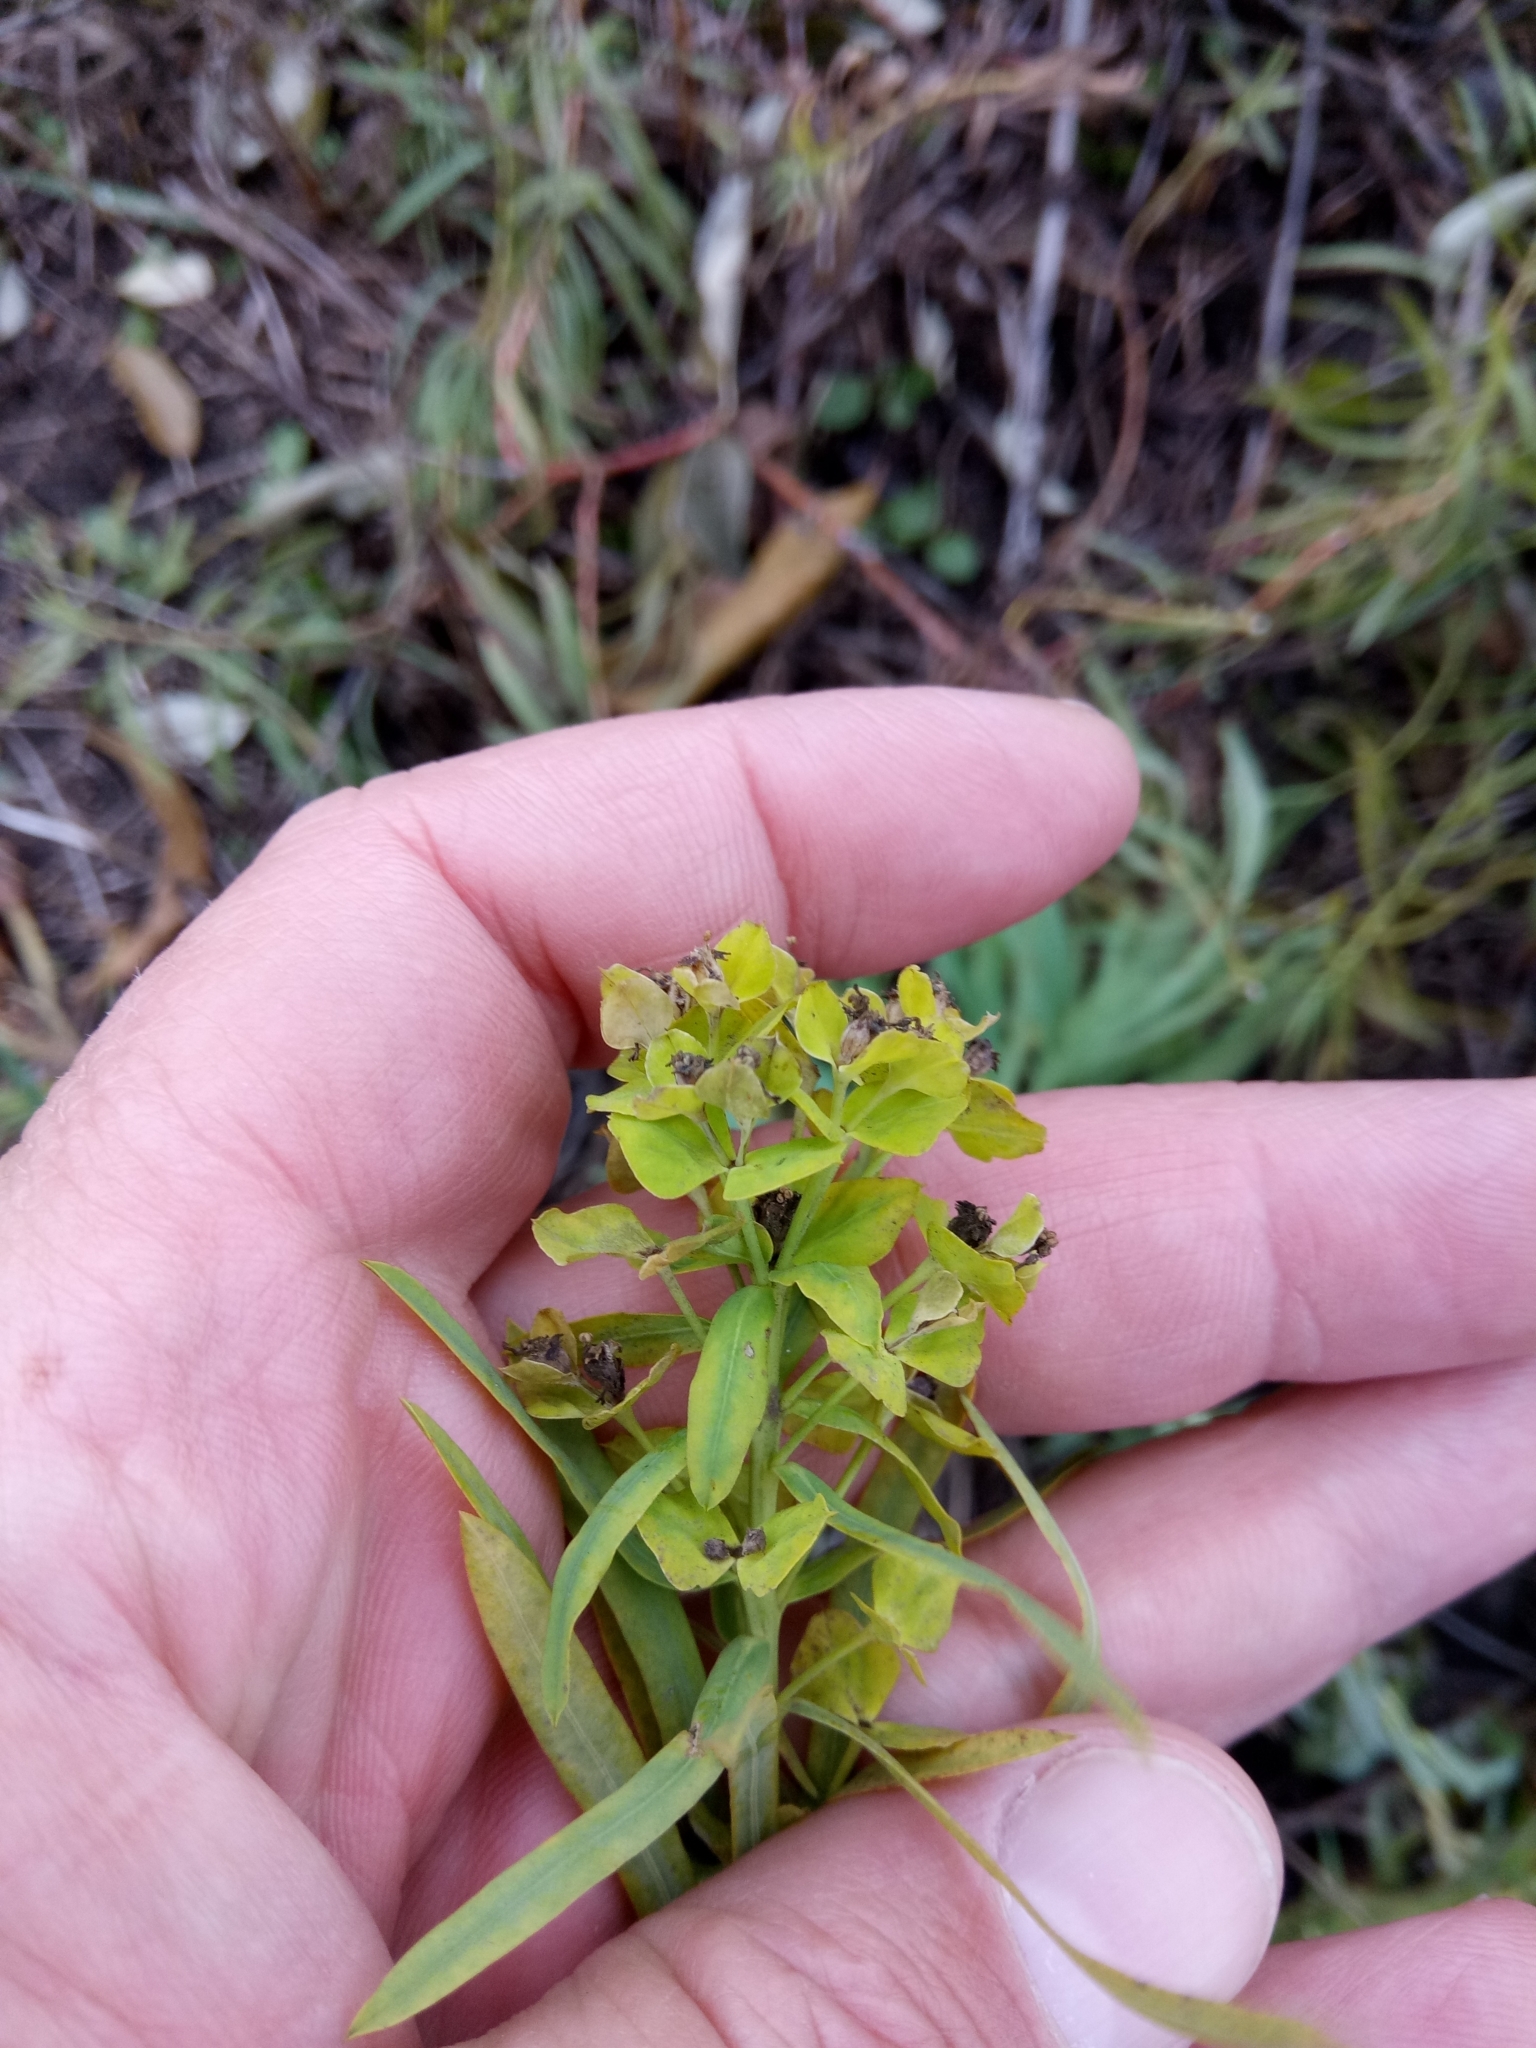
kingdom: Plantae
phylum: Tracheophyta
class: Magnoliopsida
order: Malpighiales
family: Euphorbiaceae
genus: Euphorbia
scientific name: Euphorbia virgata
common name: Leafy spurge
